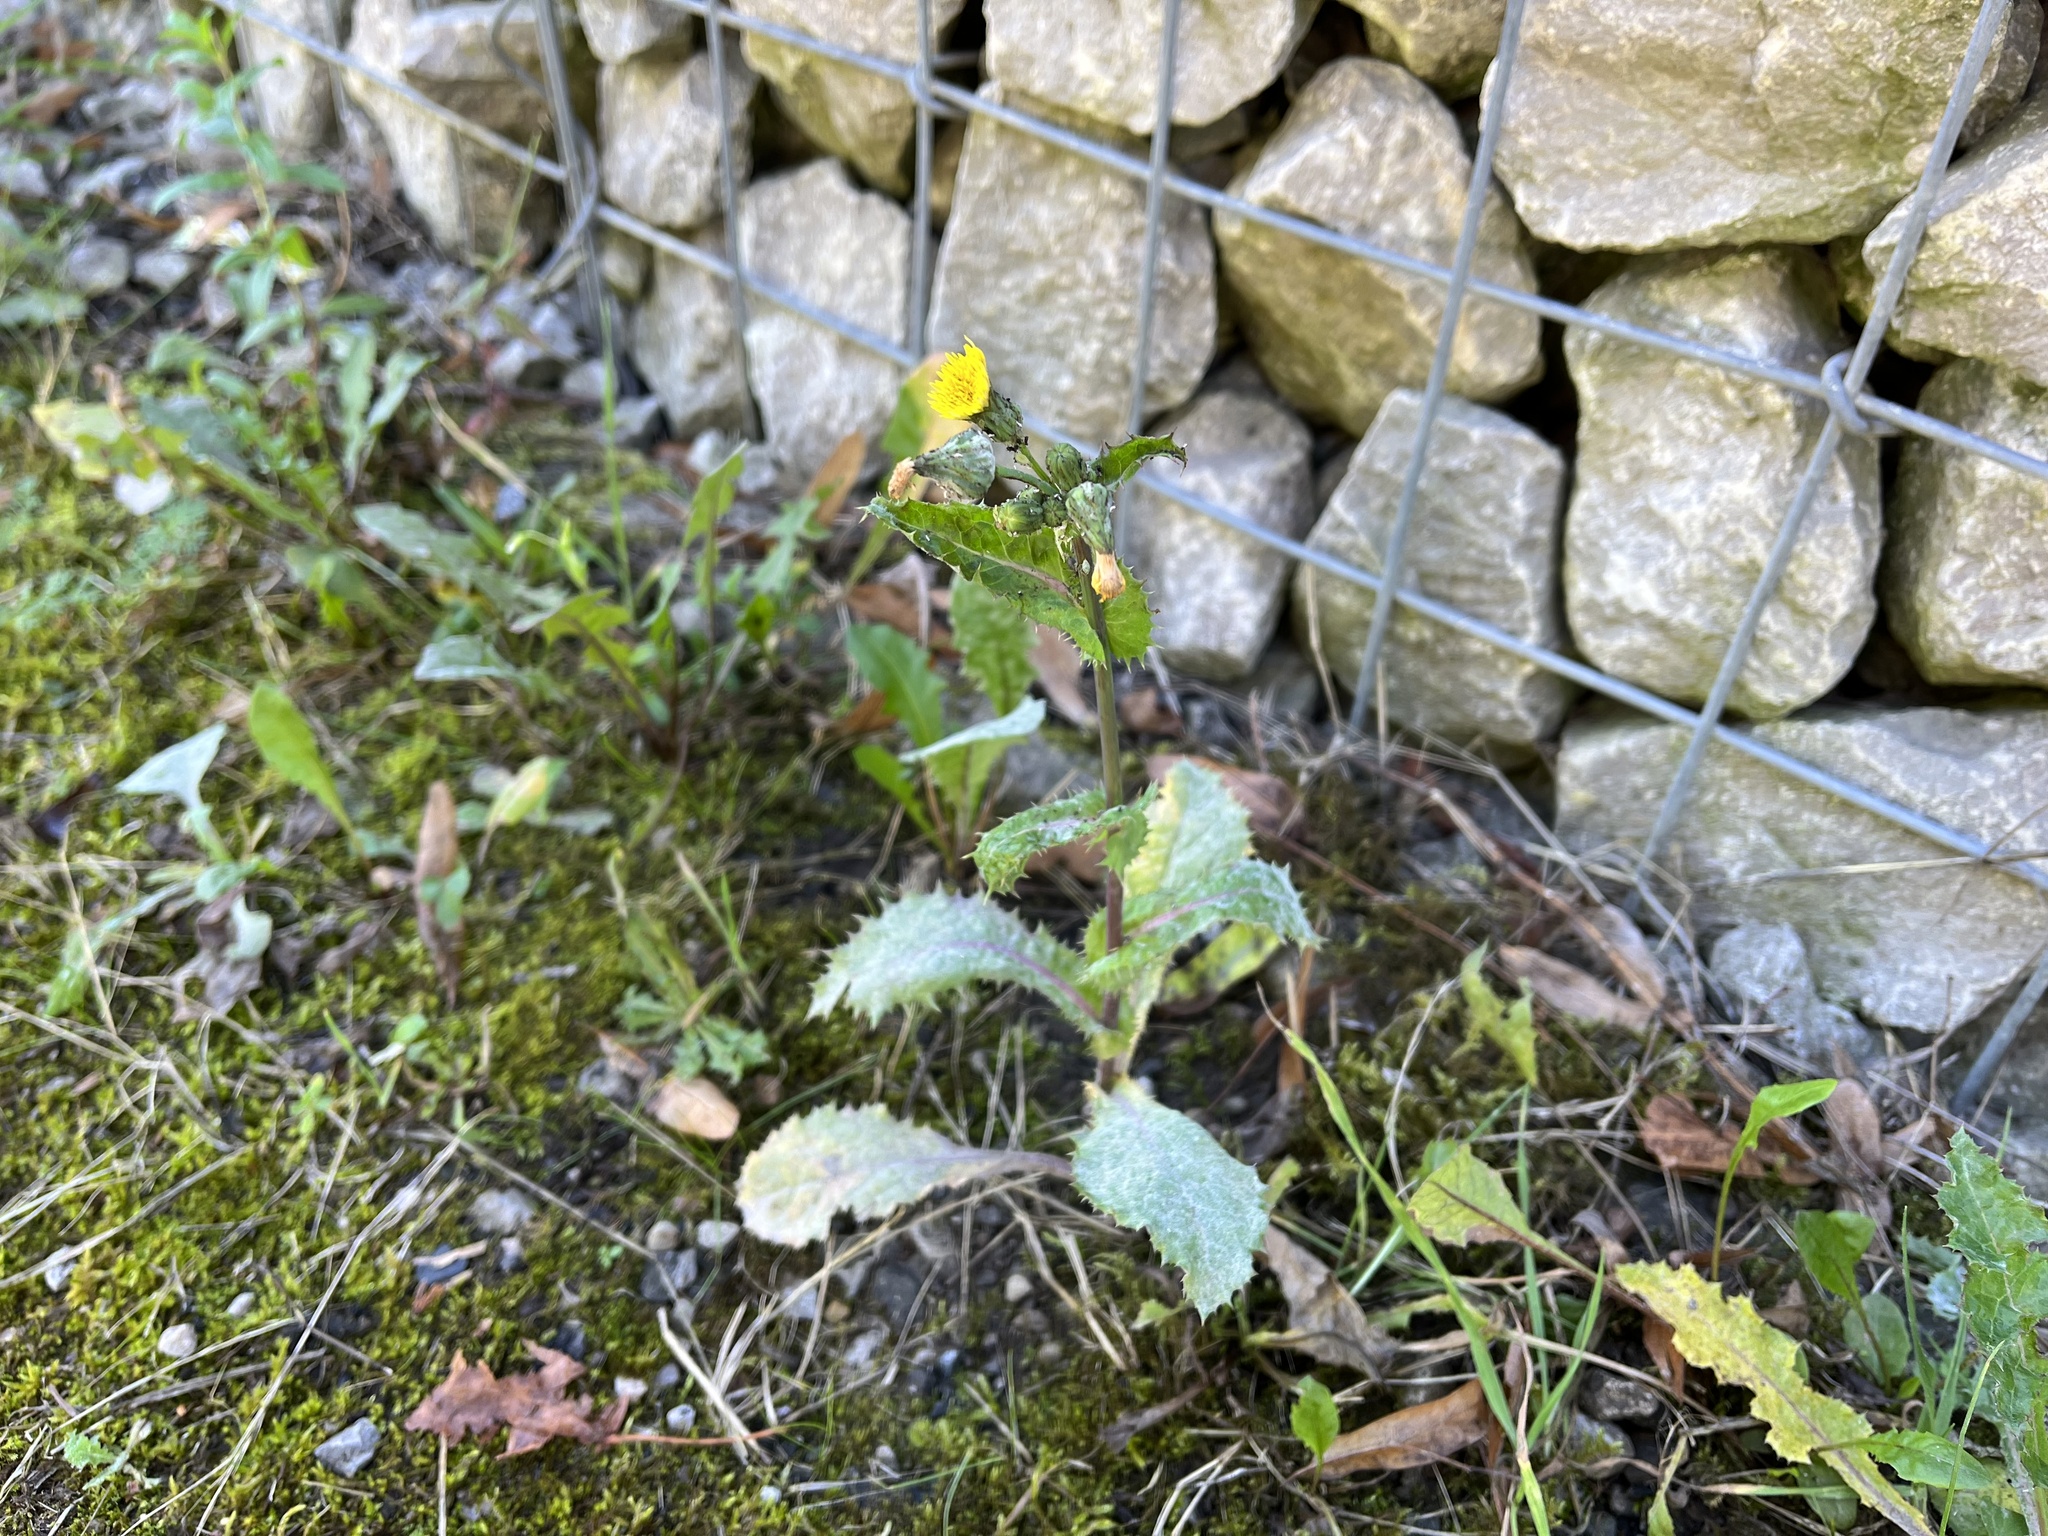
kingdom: Plantae
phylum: Tracheophyta
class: Magnoliopsida
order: Asterales
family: Asteraceae
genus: Sonchus
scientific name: Sonchus asper
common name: Prickly sow-thistle
